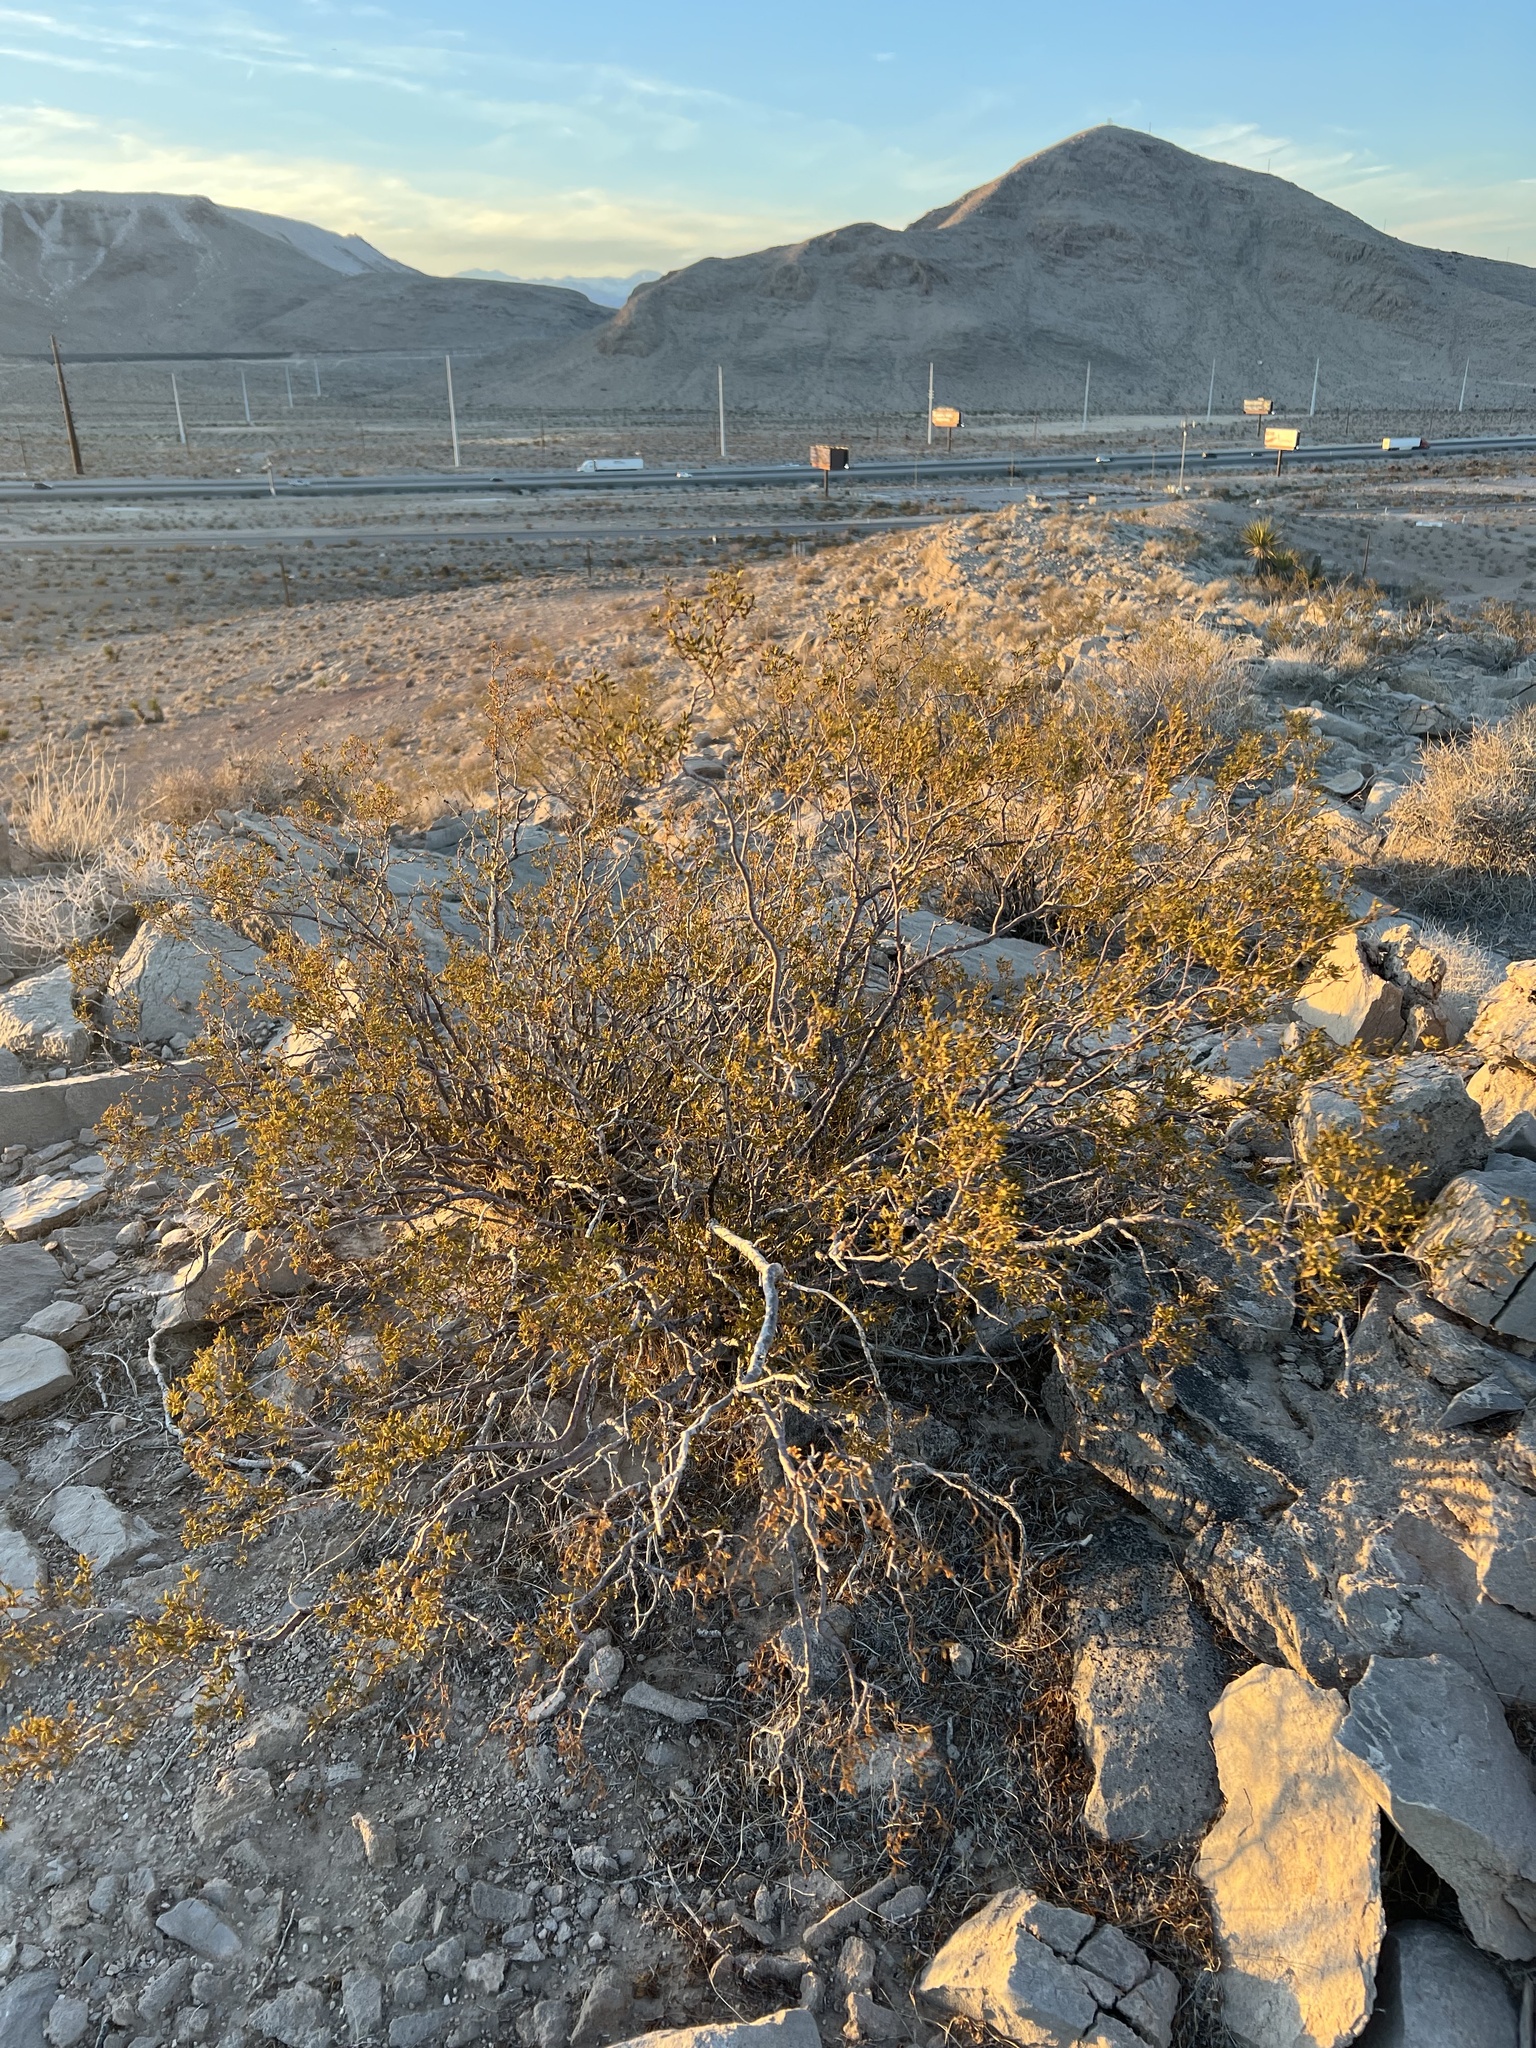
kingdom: Plantae
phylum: Tracheophyta
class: Magnoliopsida
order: Zygophyllales
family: Zygophyllaceae
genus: Larrea
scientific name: Larrea tridentata
